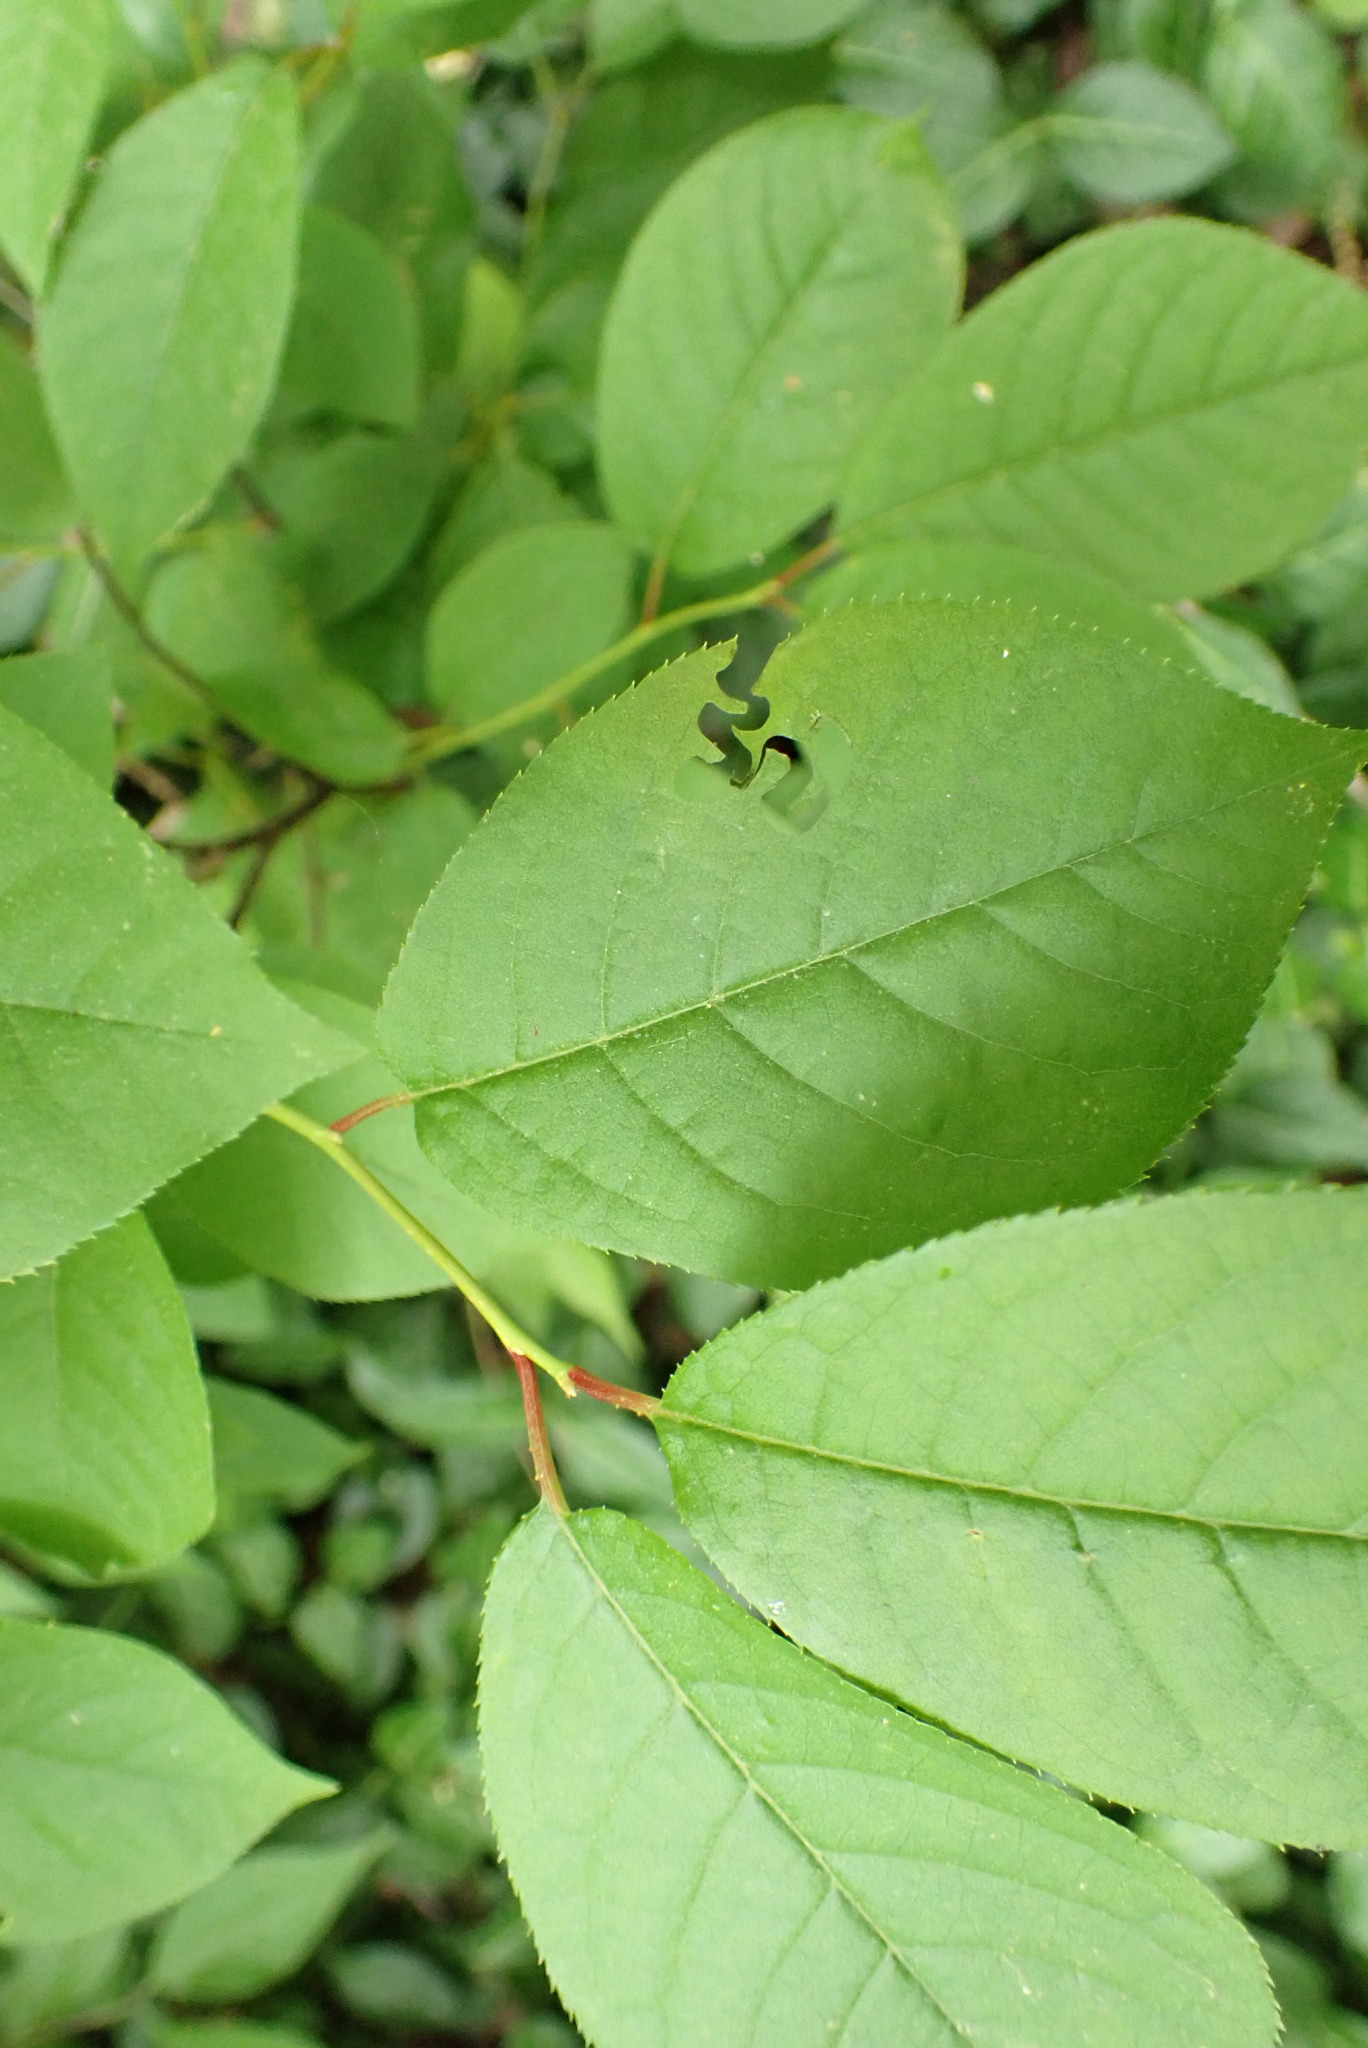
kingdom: Plantae
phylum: Tracheophyta
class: Magnoliopsida
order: Rosales
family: Rosaceae
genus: Prunus
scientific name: Prunus virginiana
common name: Chokecherry
